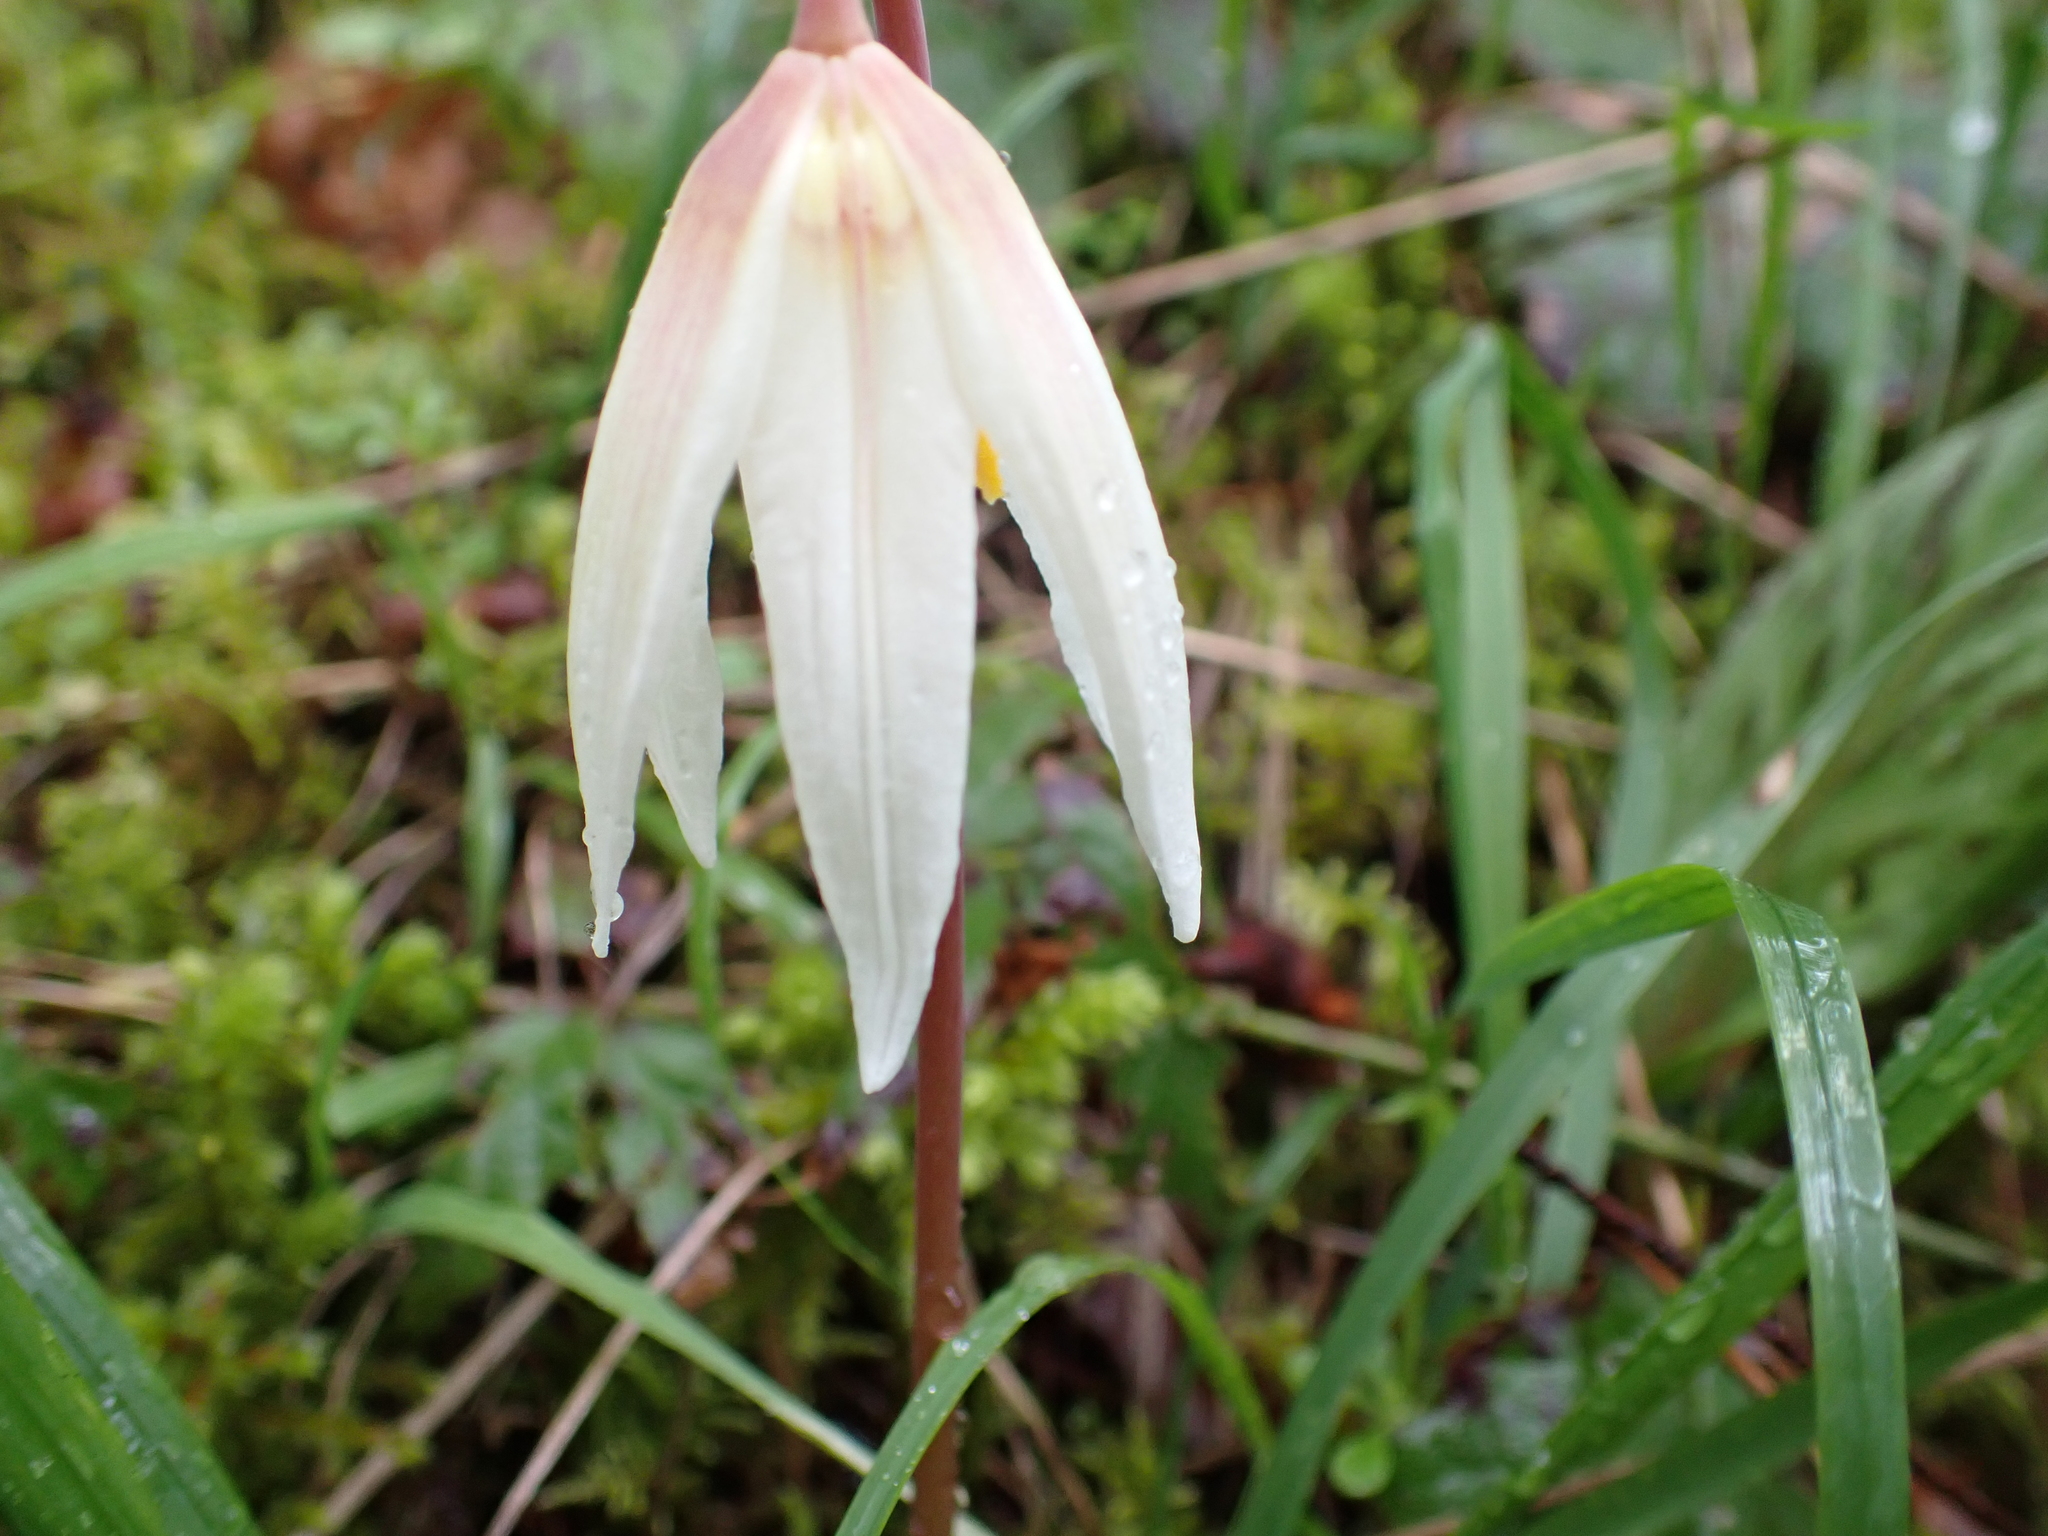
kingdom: Plantae
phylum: Tracheophyta
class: Liliopsida
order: Liliales
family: Liliaceae
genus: Erythronium
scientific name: Erythronium oregonum
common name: Giant adder's-tongue
